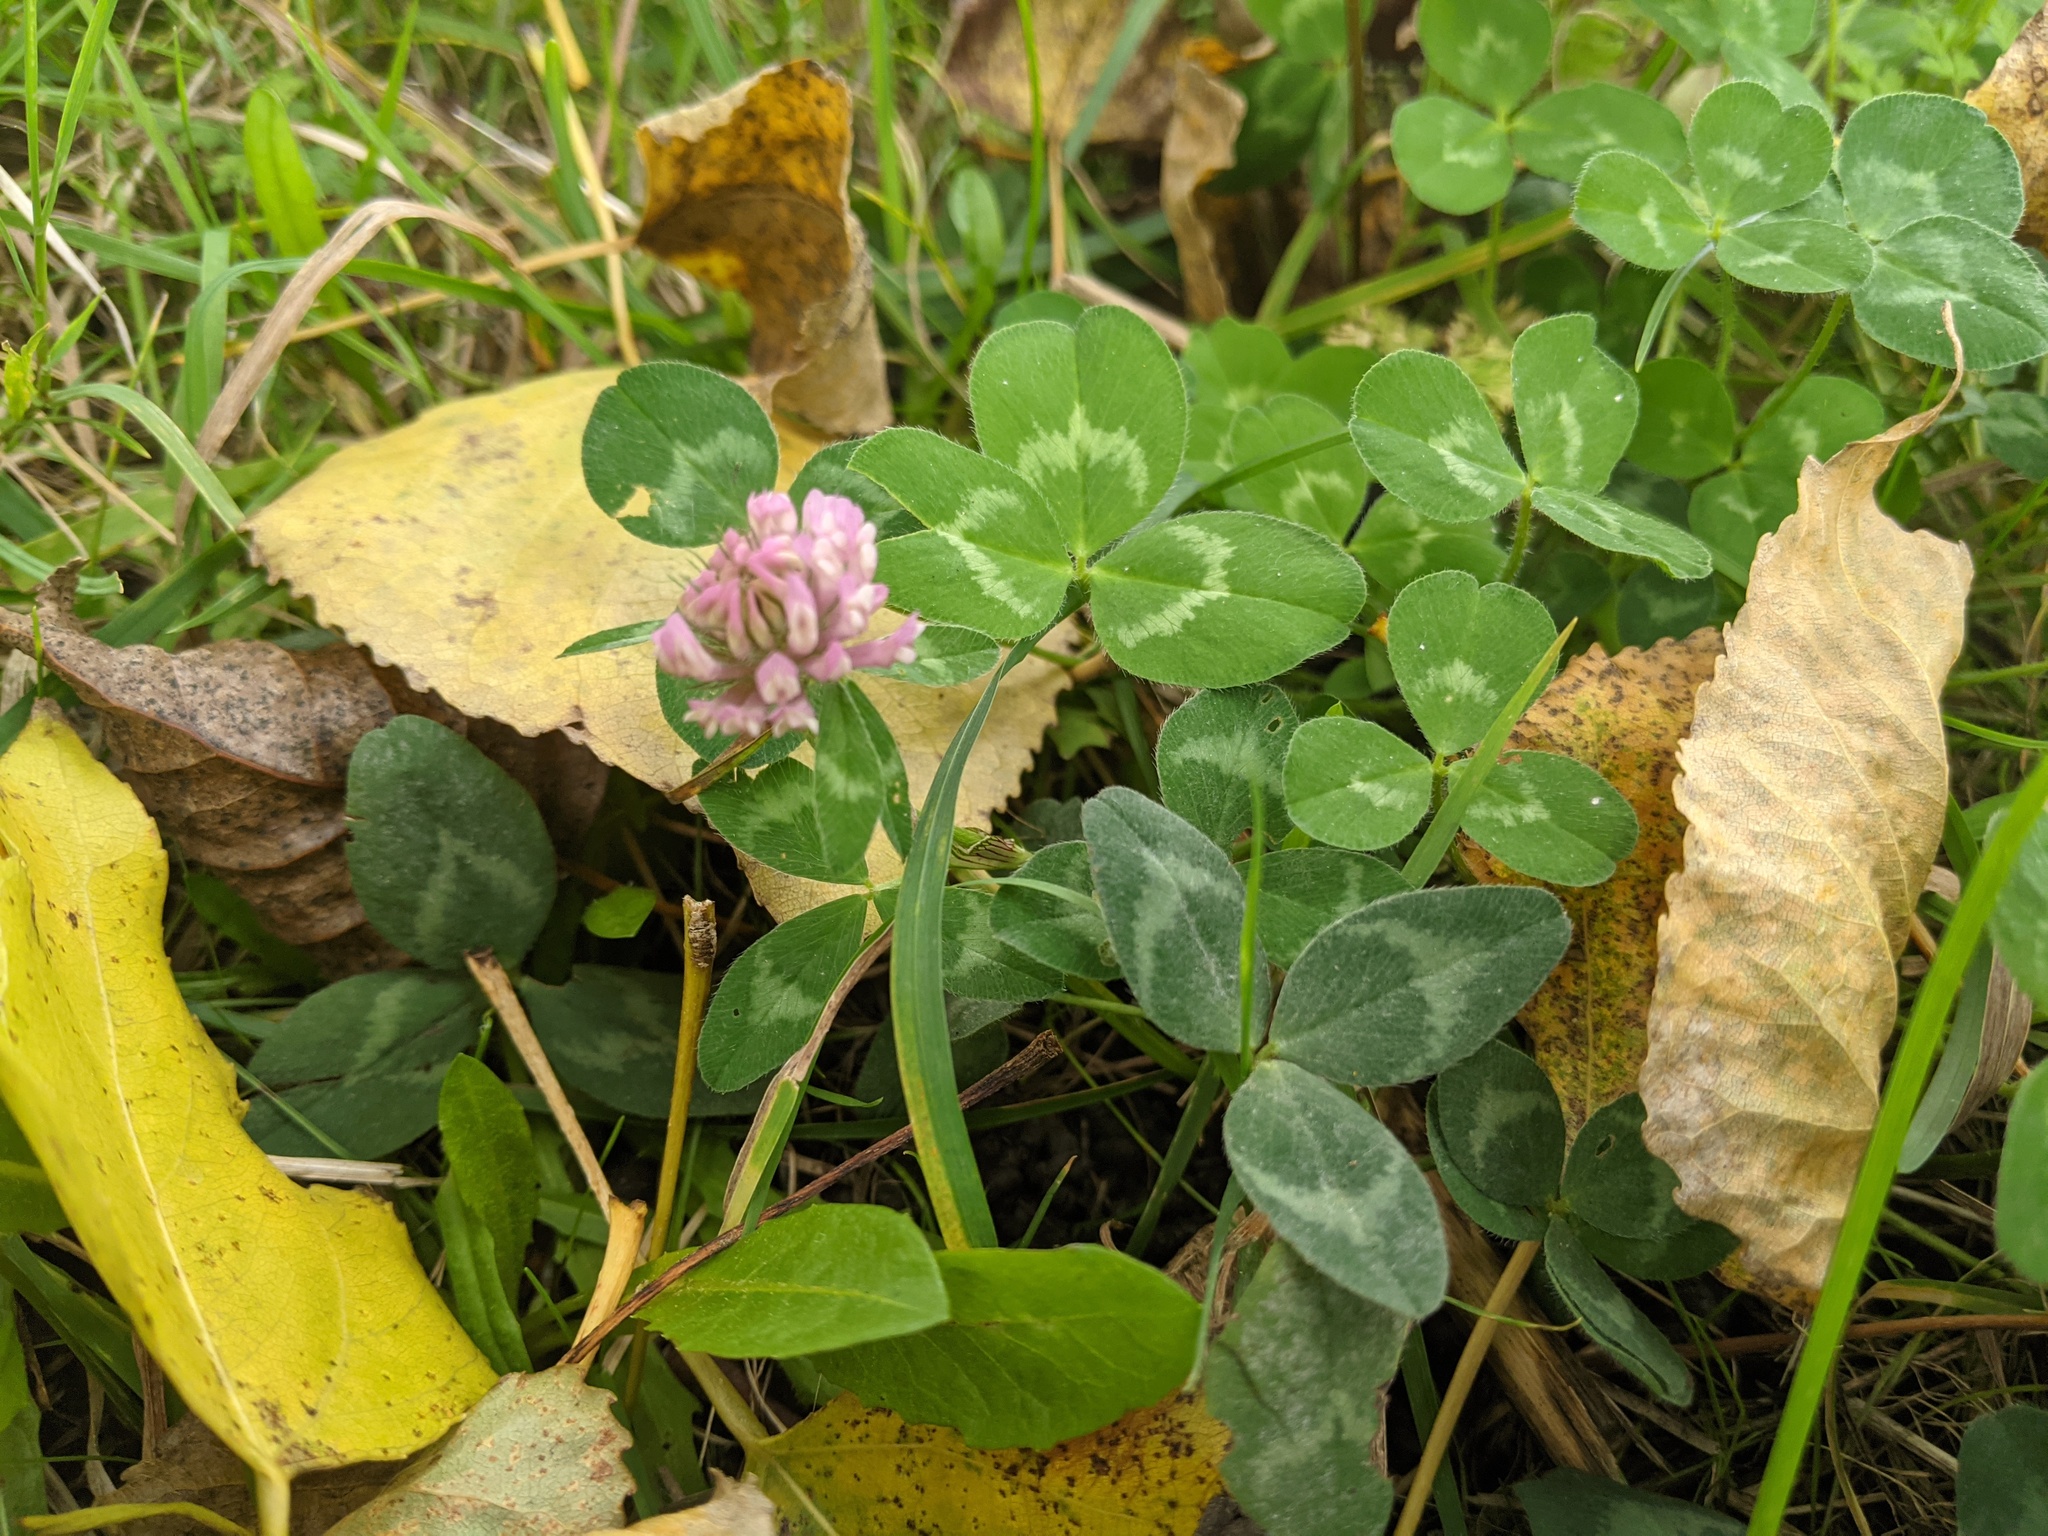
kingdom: Plantae
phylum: Tracheophyta
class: Magnoliopsida
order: Fabales
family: Fabaceae
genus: Trifolium
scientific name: Trifolium pratense
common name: Red clover
